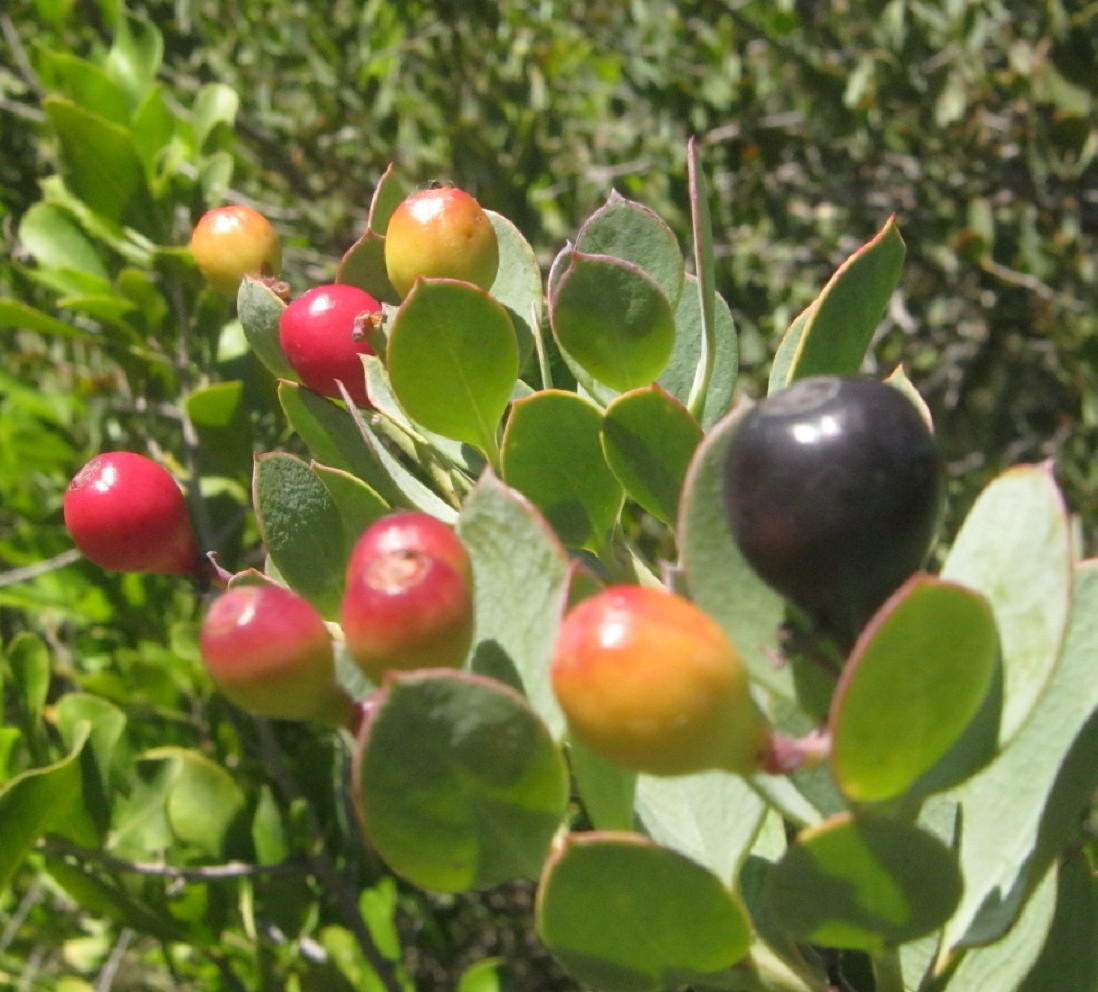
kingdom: Plantae
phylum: Tracheophyta
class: Magnoliopsida
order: Santalales
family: Santalaceae
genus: Osyris
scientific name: Osyris compressa
